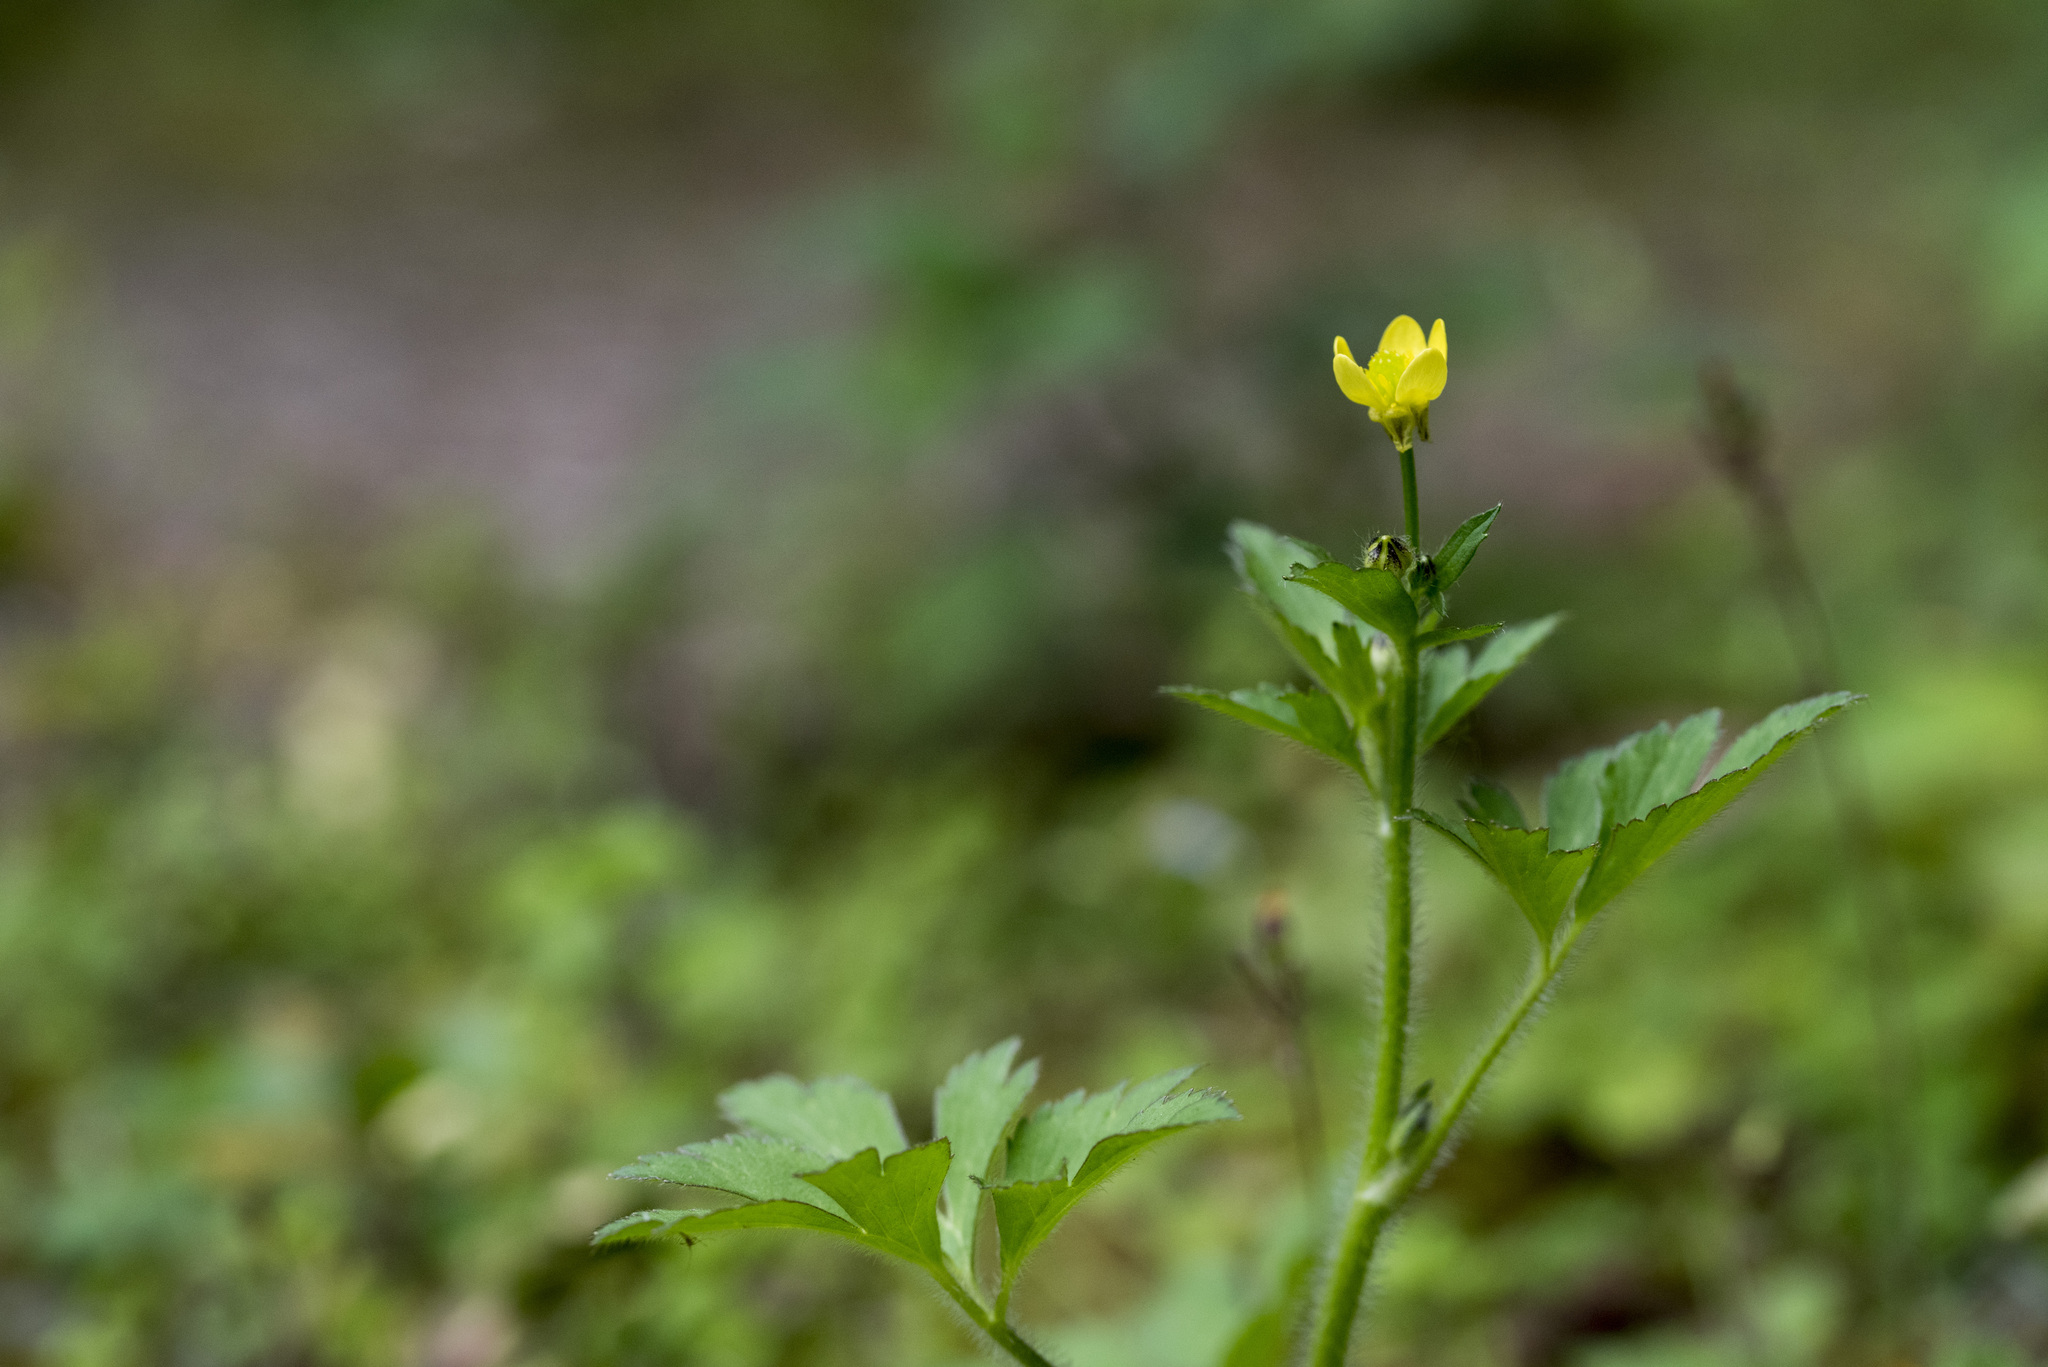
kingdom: Plantae
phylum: Tracheophyta
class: Magnoliopsida
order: Ranunculales
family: Ranunculaceae
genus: Ranunculus
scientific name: Ranunculus cantoniensis
